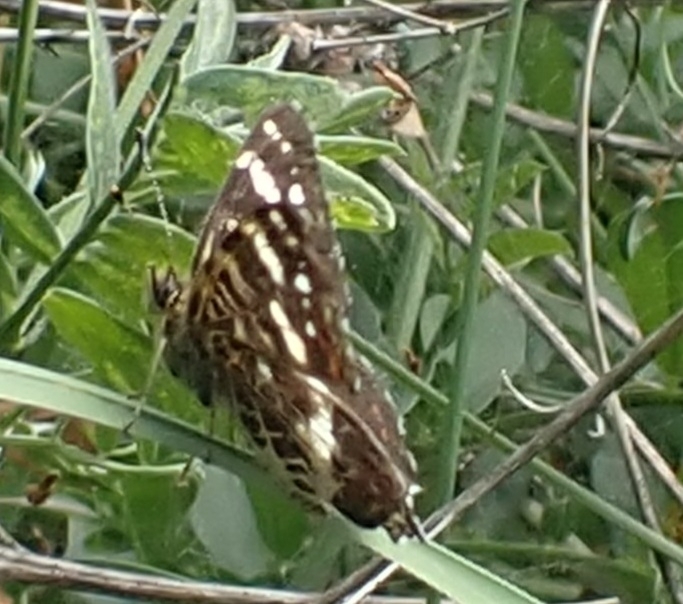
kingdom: Animalia
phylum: Arthropoda
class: Insecta
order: Lepidoptera
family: Nymphalidae
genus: Araschnia
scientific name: Araschnia levana
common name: Map butterfly
